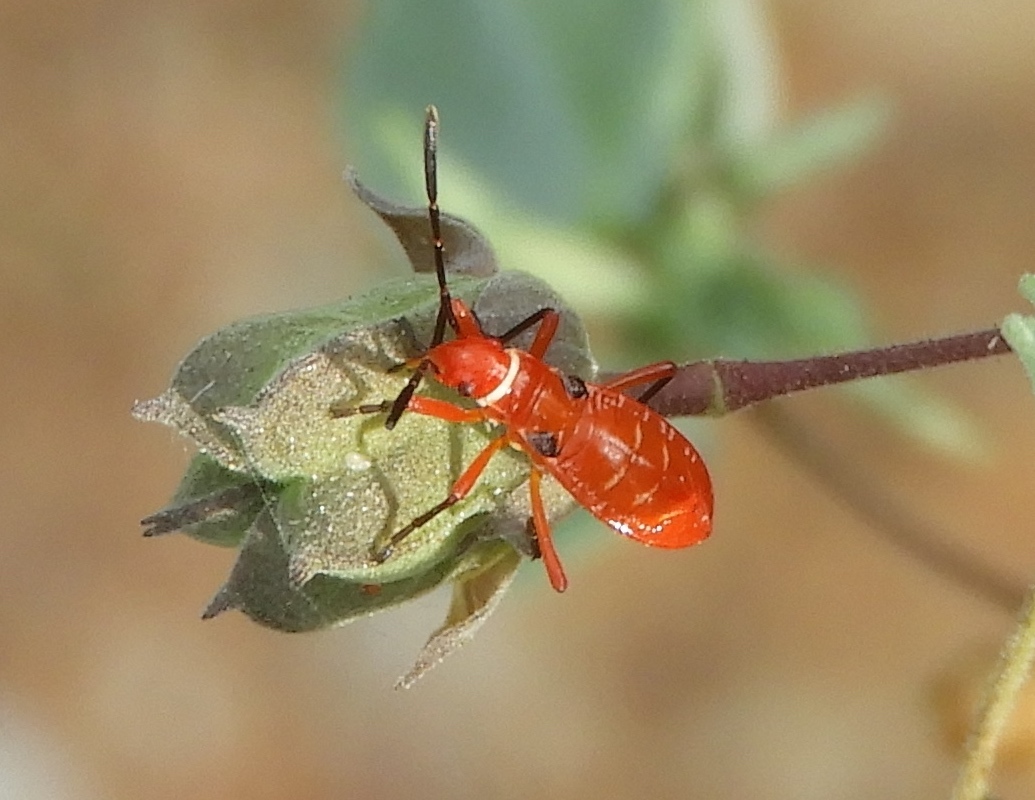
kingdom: Animalia
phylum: Arthropoda
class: Insecta
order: Hemiptera
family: Pyrrhocoridae
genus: Dysdercus
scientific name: Dysdercus
